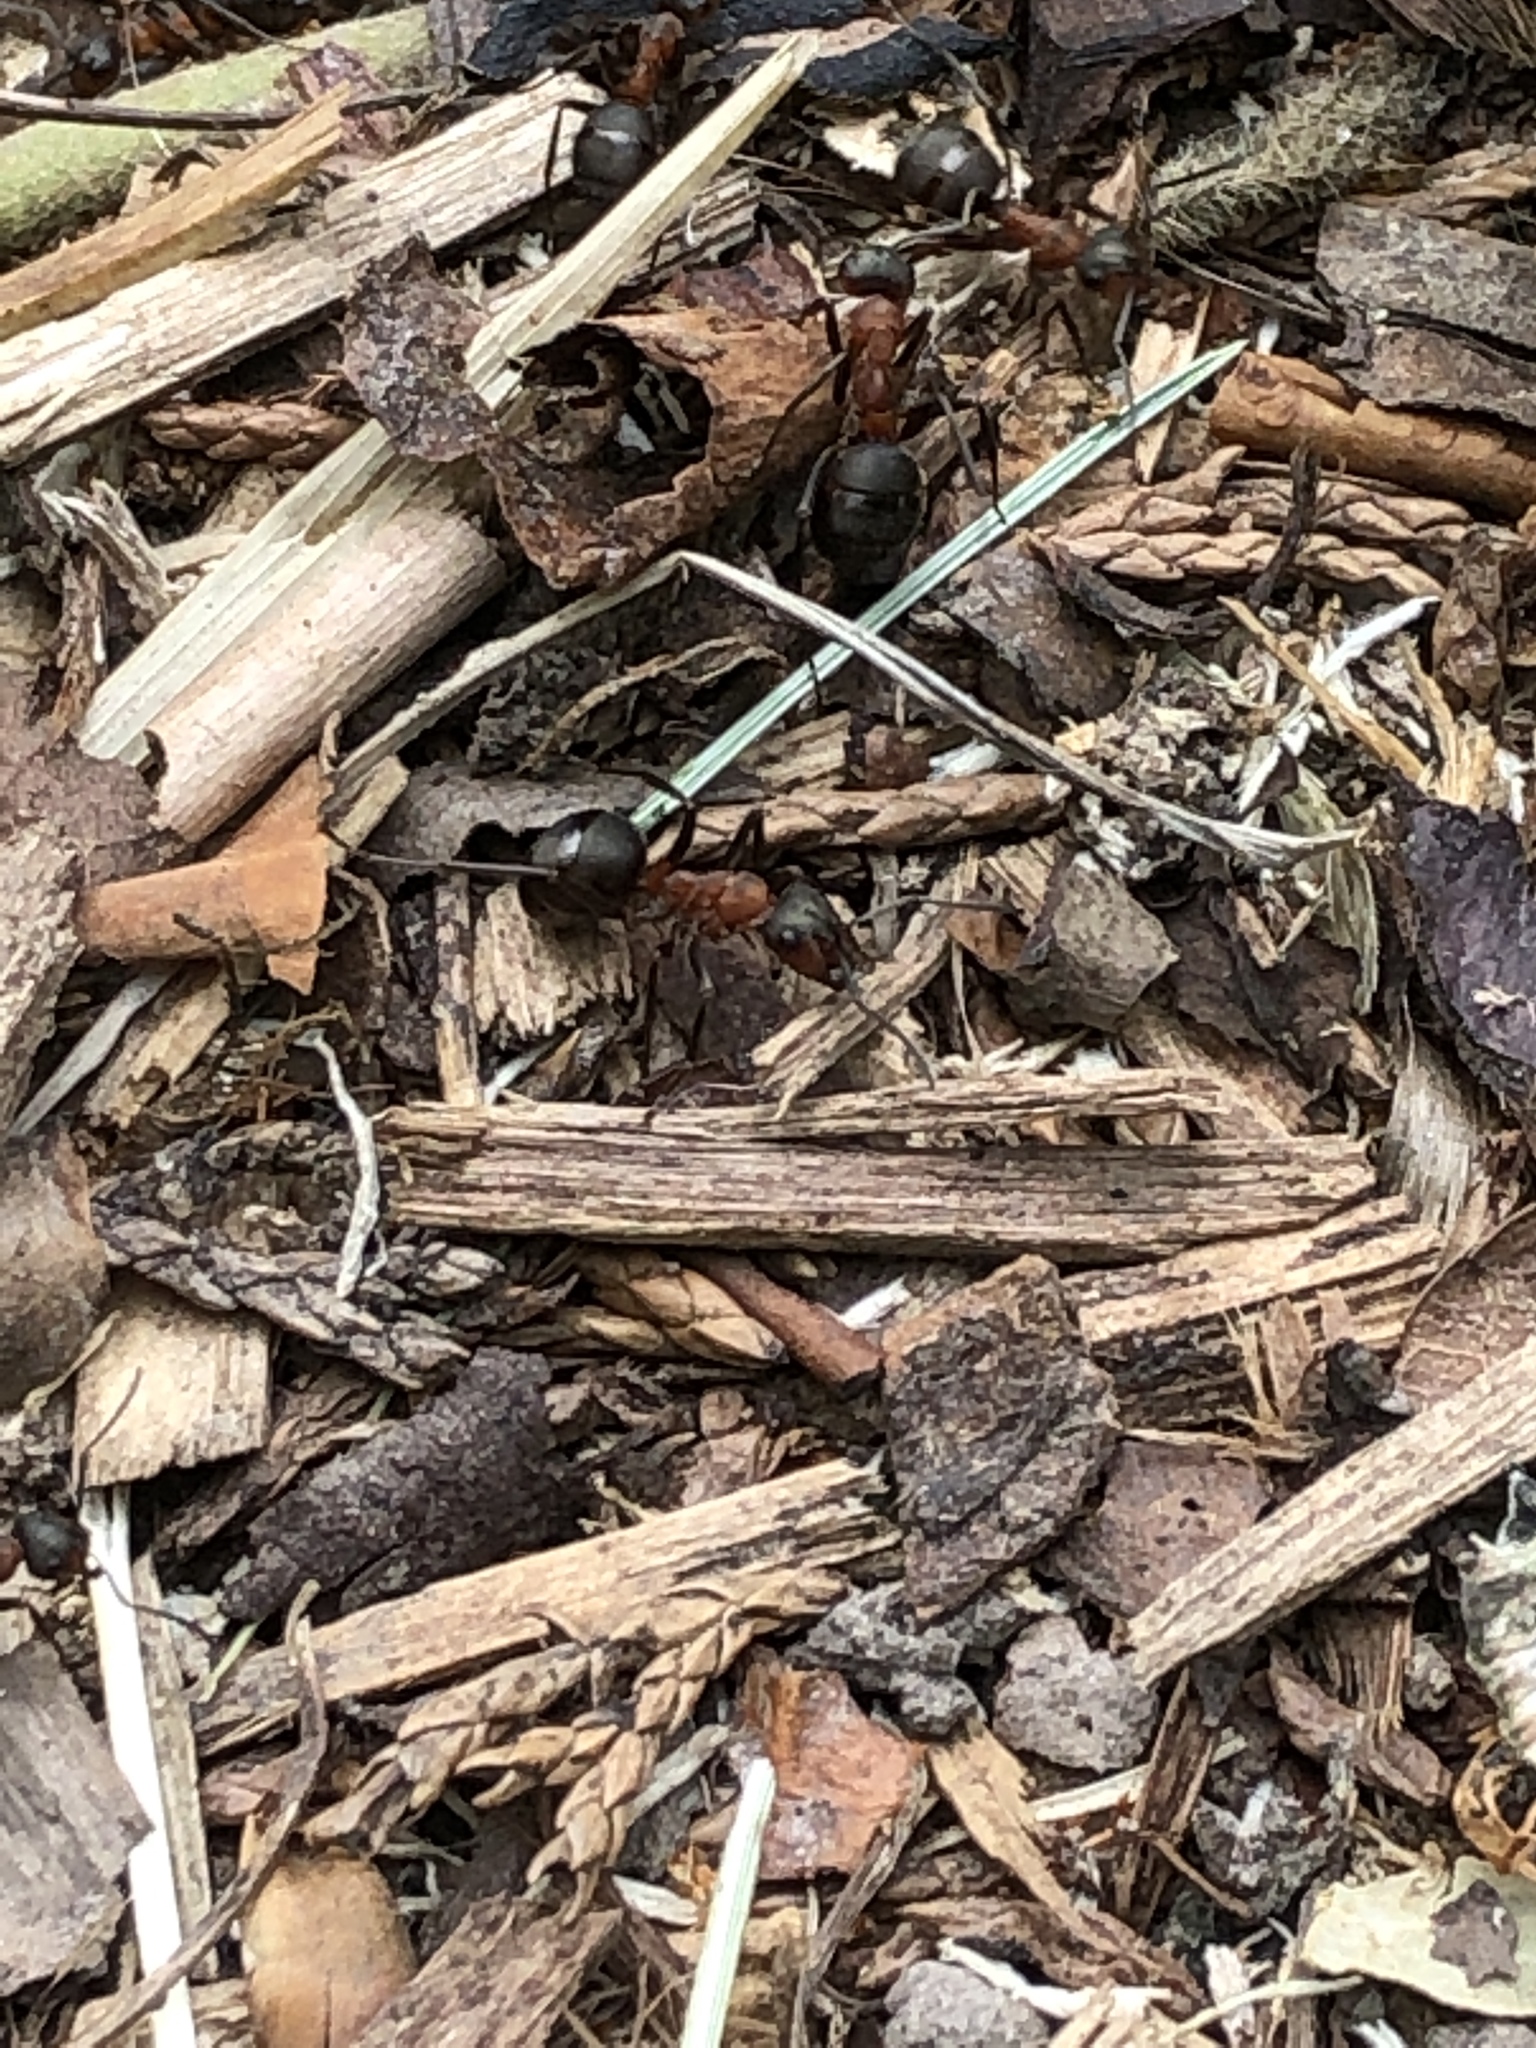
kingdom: Animalia
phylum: Arthropoda
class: Insecta
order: Hymenoptera
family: Formicidae
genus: Formica
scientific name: Formica
